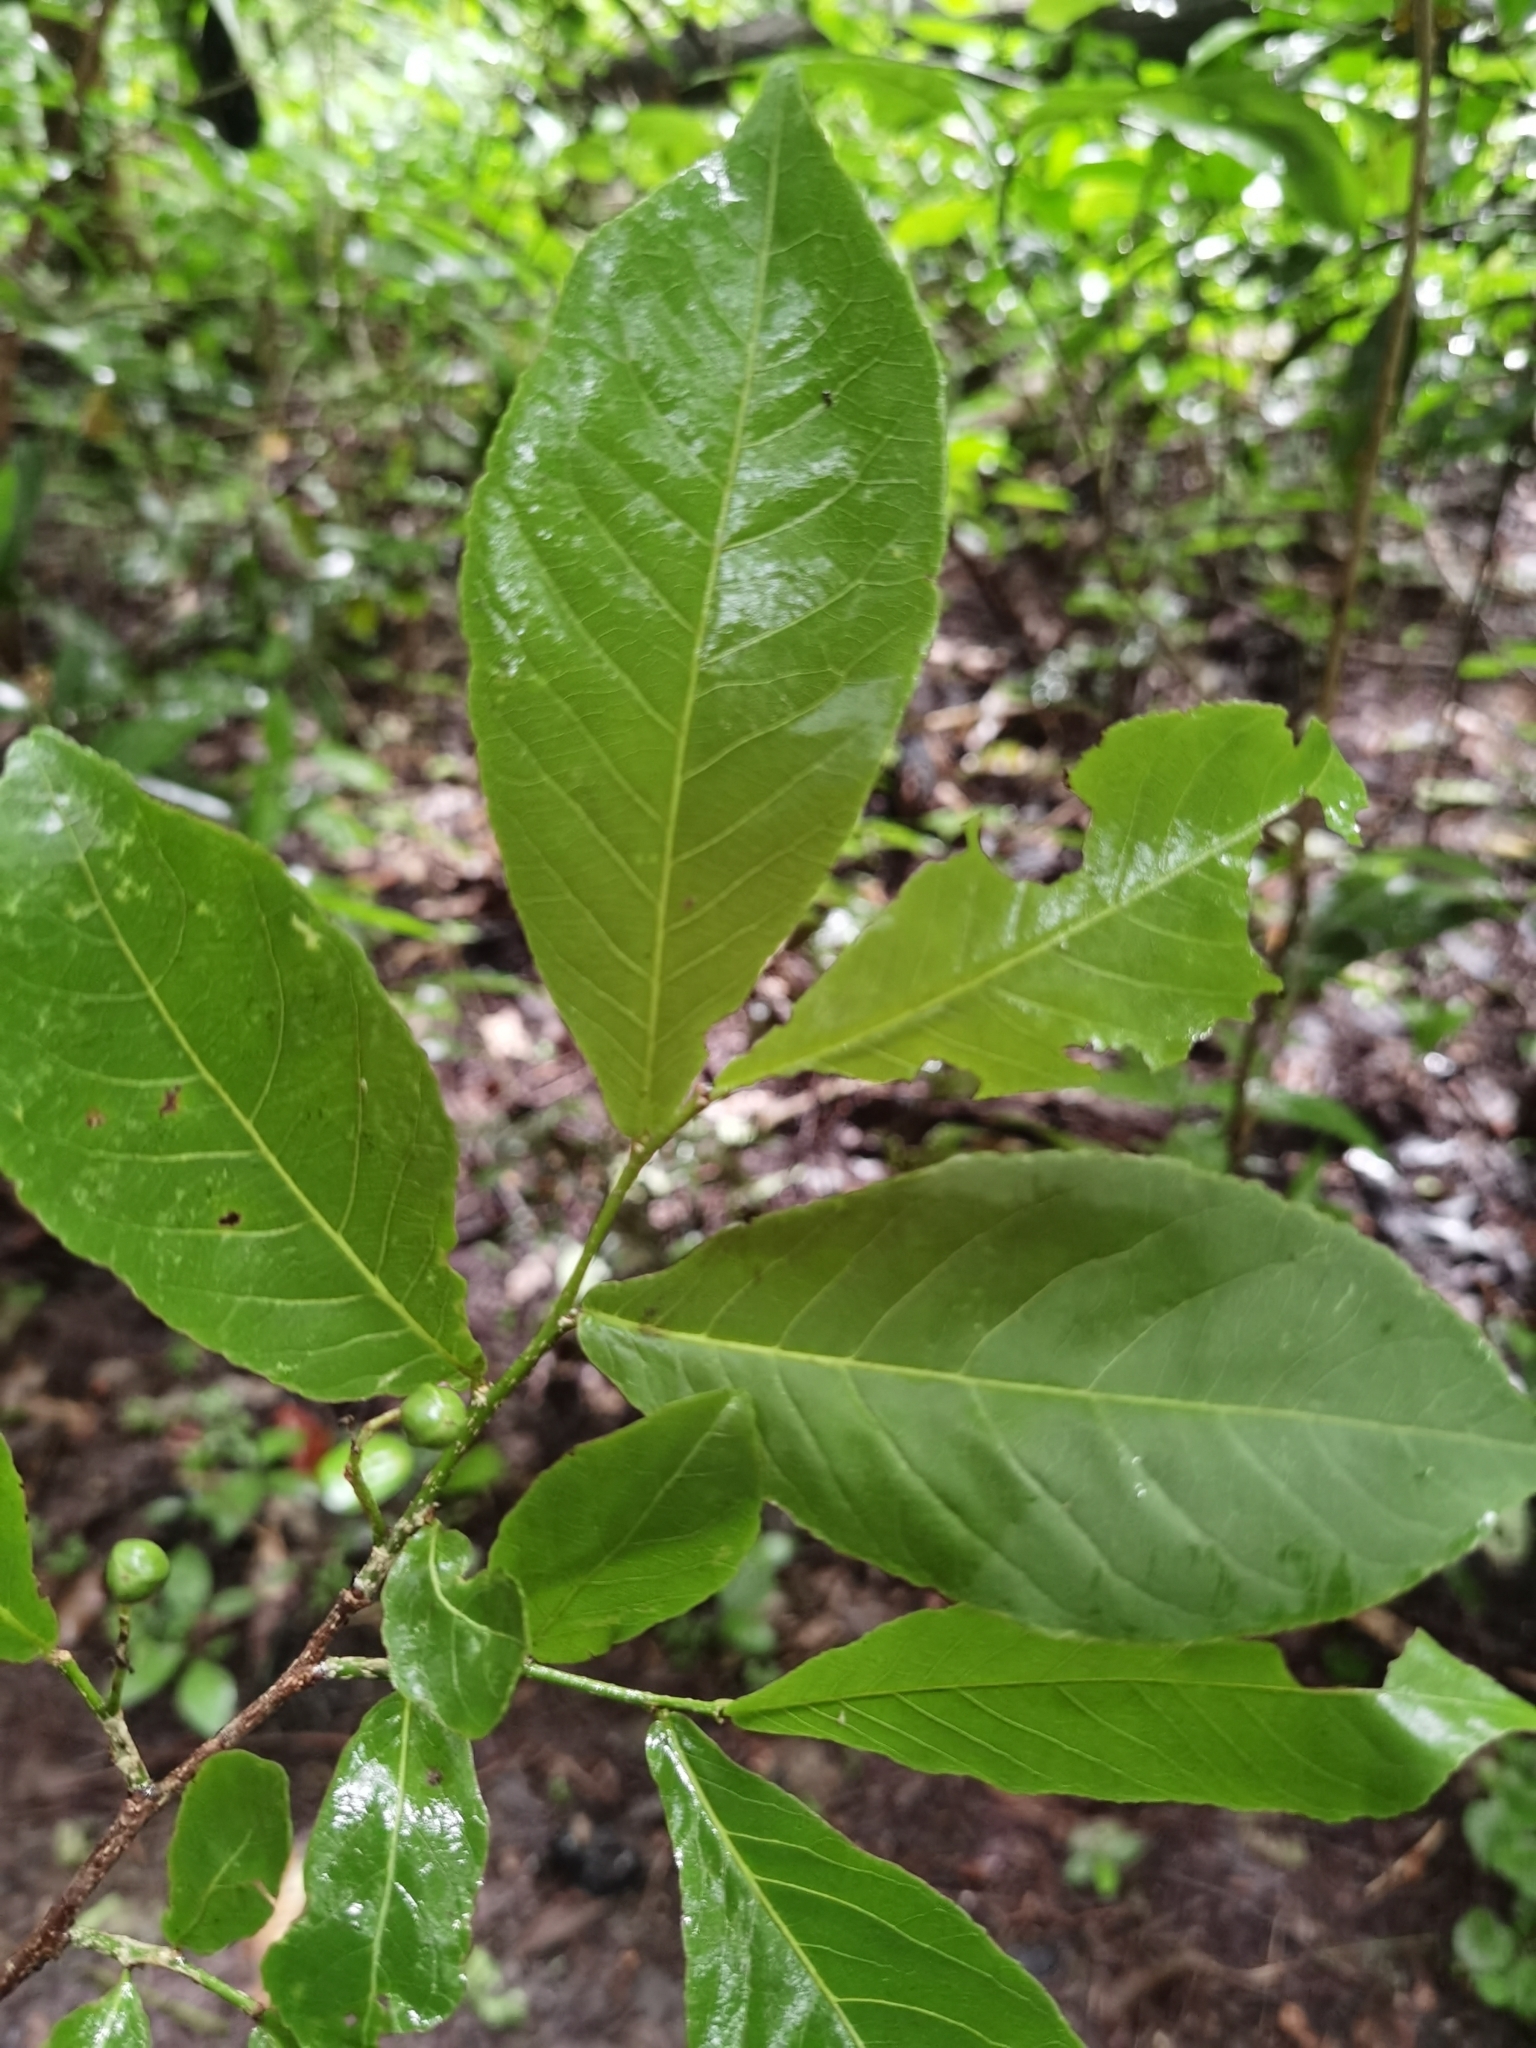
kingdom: Plantae
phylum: Tracheophyta
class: Magnoliopsida
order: Malpighiales
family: Salicaceae
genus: Casearia
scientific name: Casearia corymbosa
